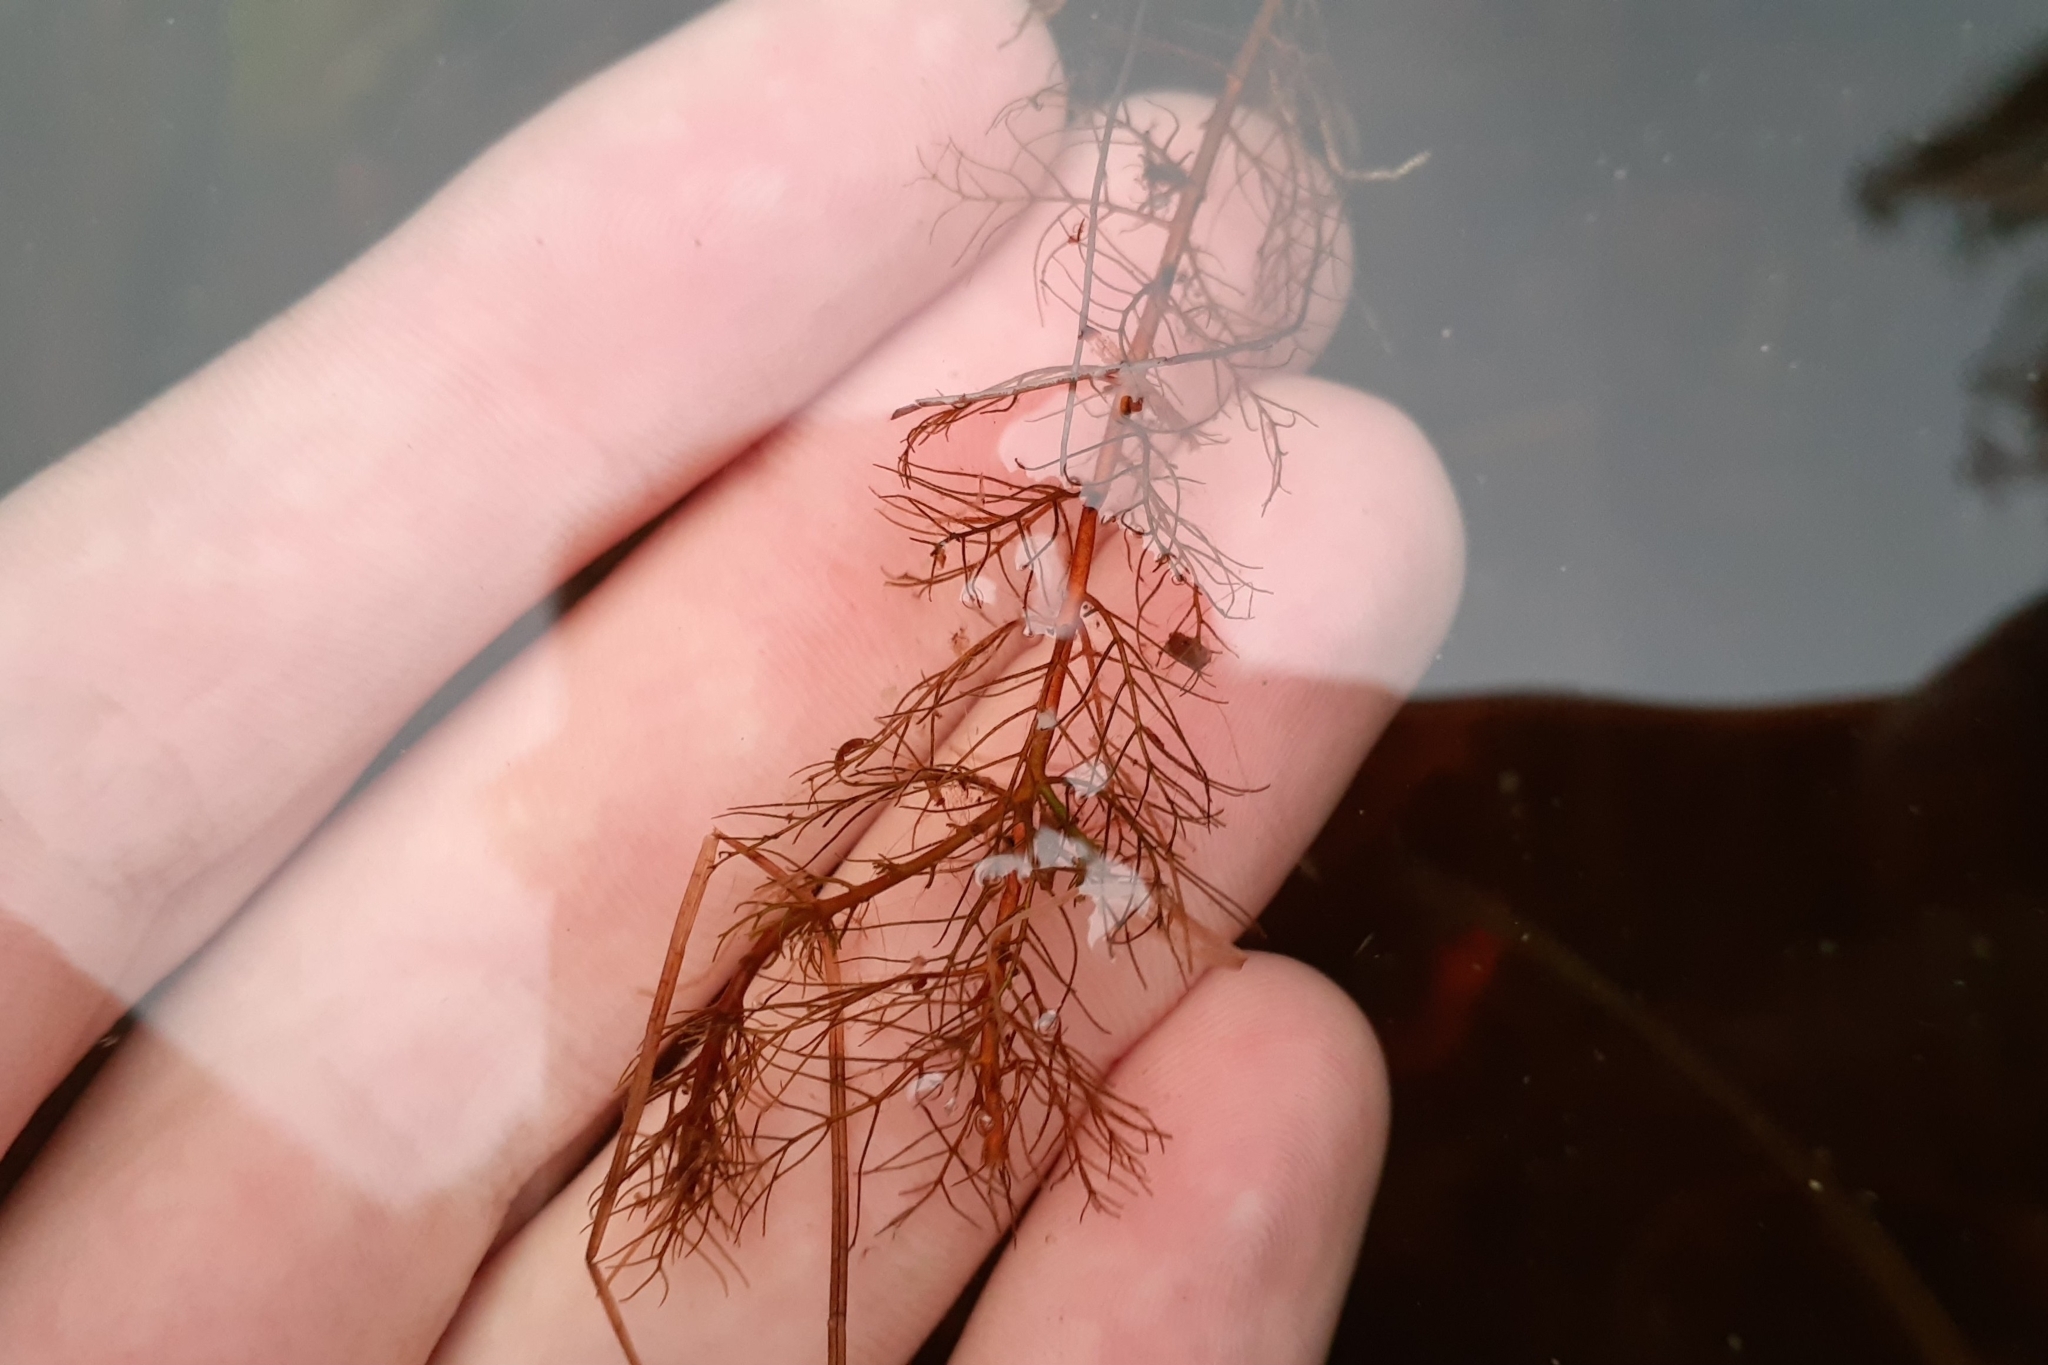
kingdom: Plantae
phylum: Tracheophyta
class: Magnoliopsida
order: Saxifragales
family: Haloragaceae
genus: Myriophyllum
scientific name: Myriophyllum farwellii
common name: Farwell's water-milfoil
